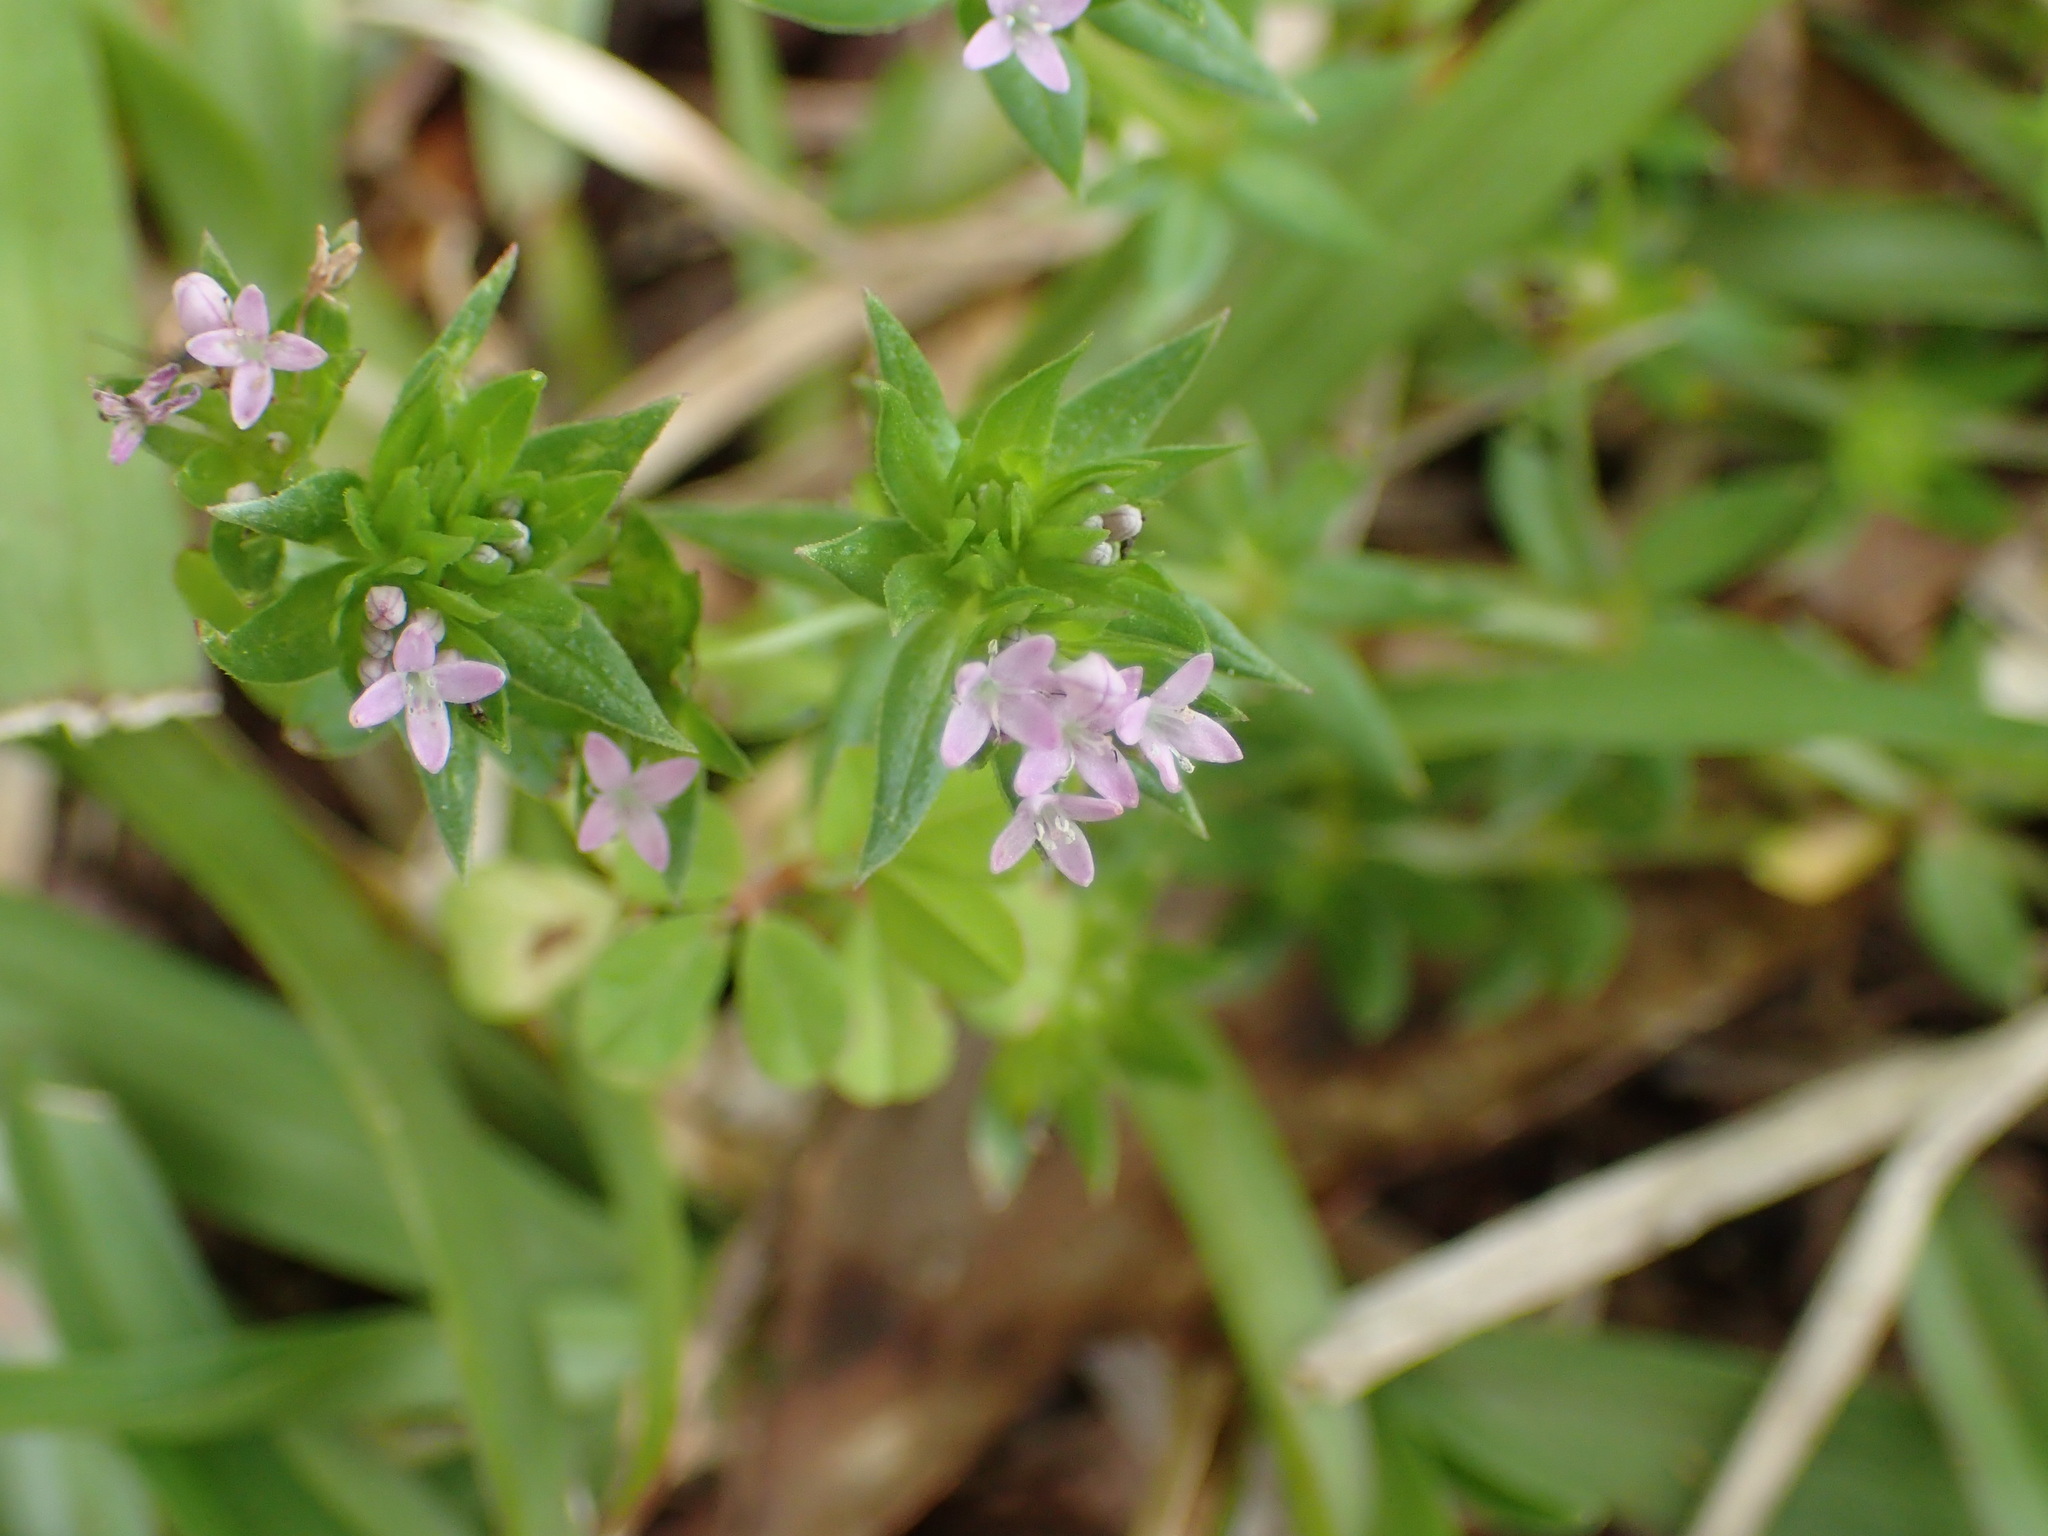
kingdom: Plantae
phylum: Tracheophyta
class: Magnoliopsida
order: Gentianales
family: Rubiaceae
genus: Sherardia
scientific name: Sherardia arvensis
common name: Field madder
